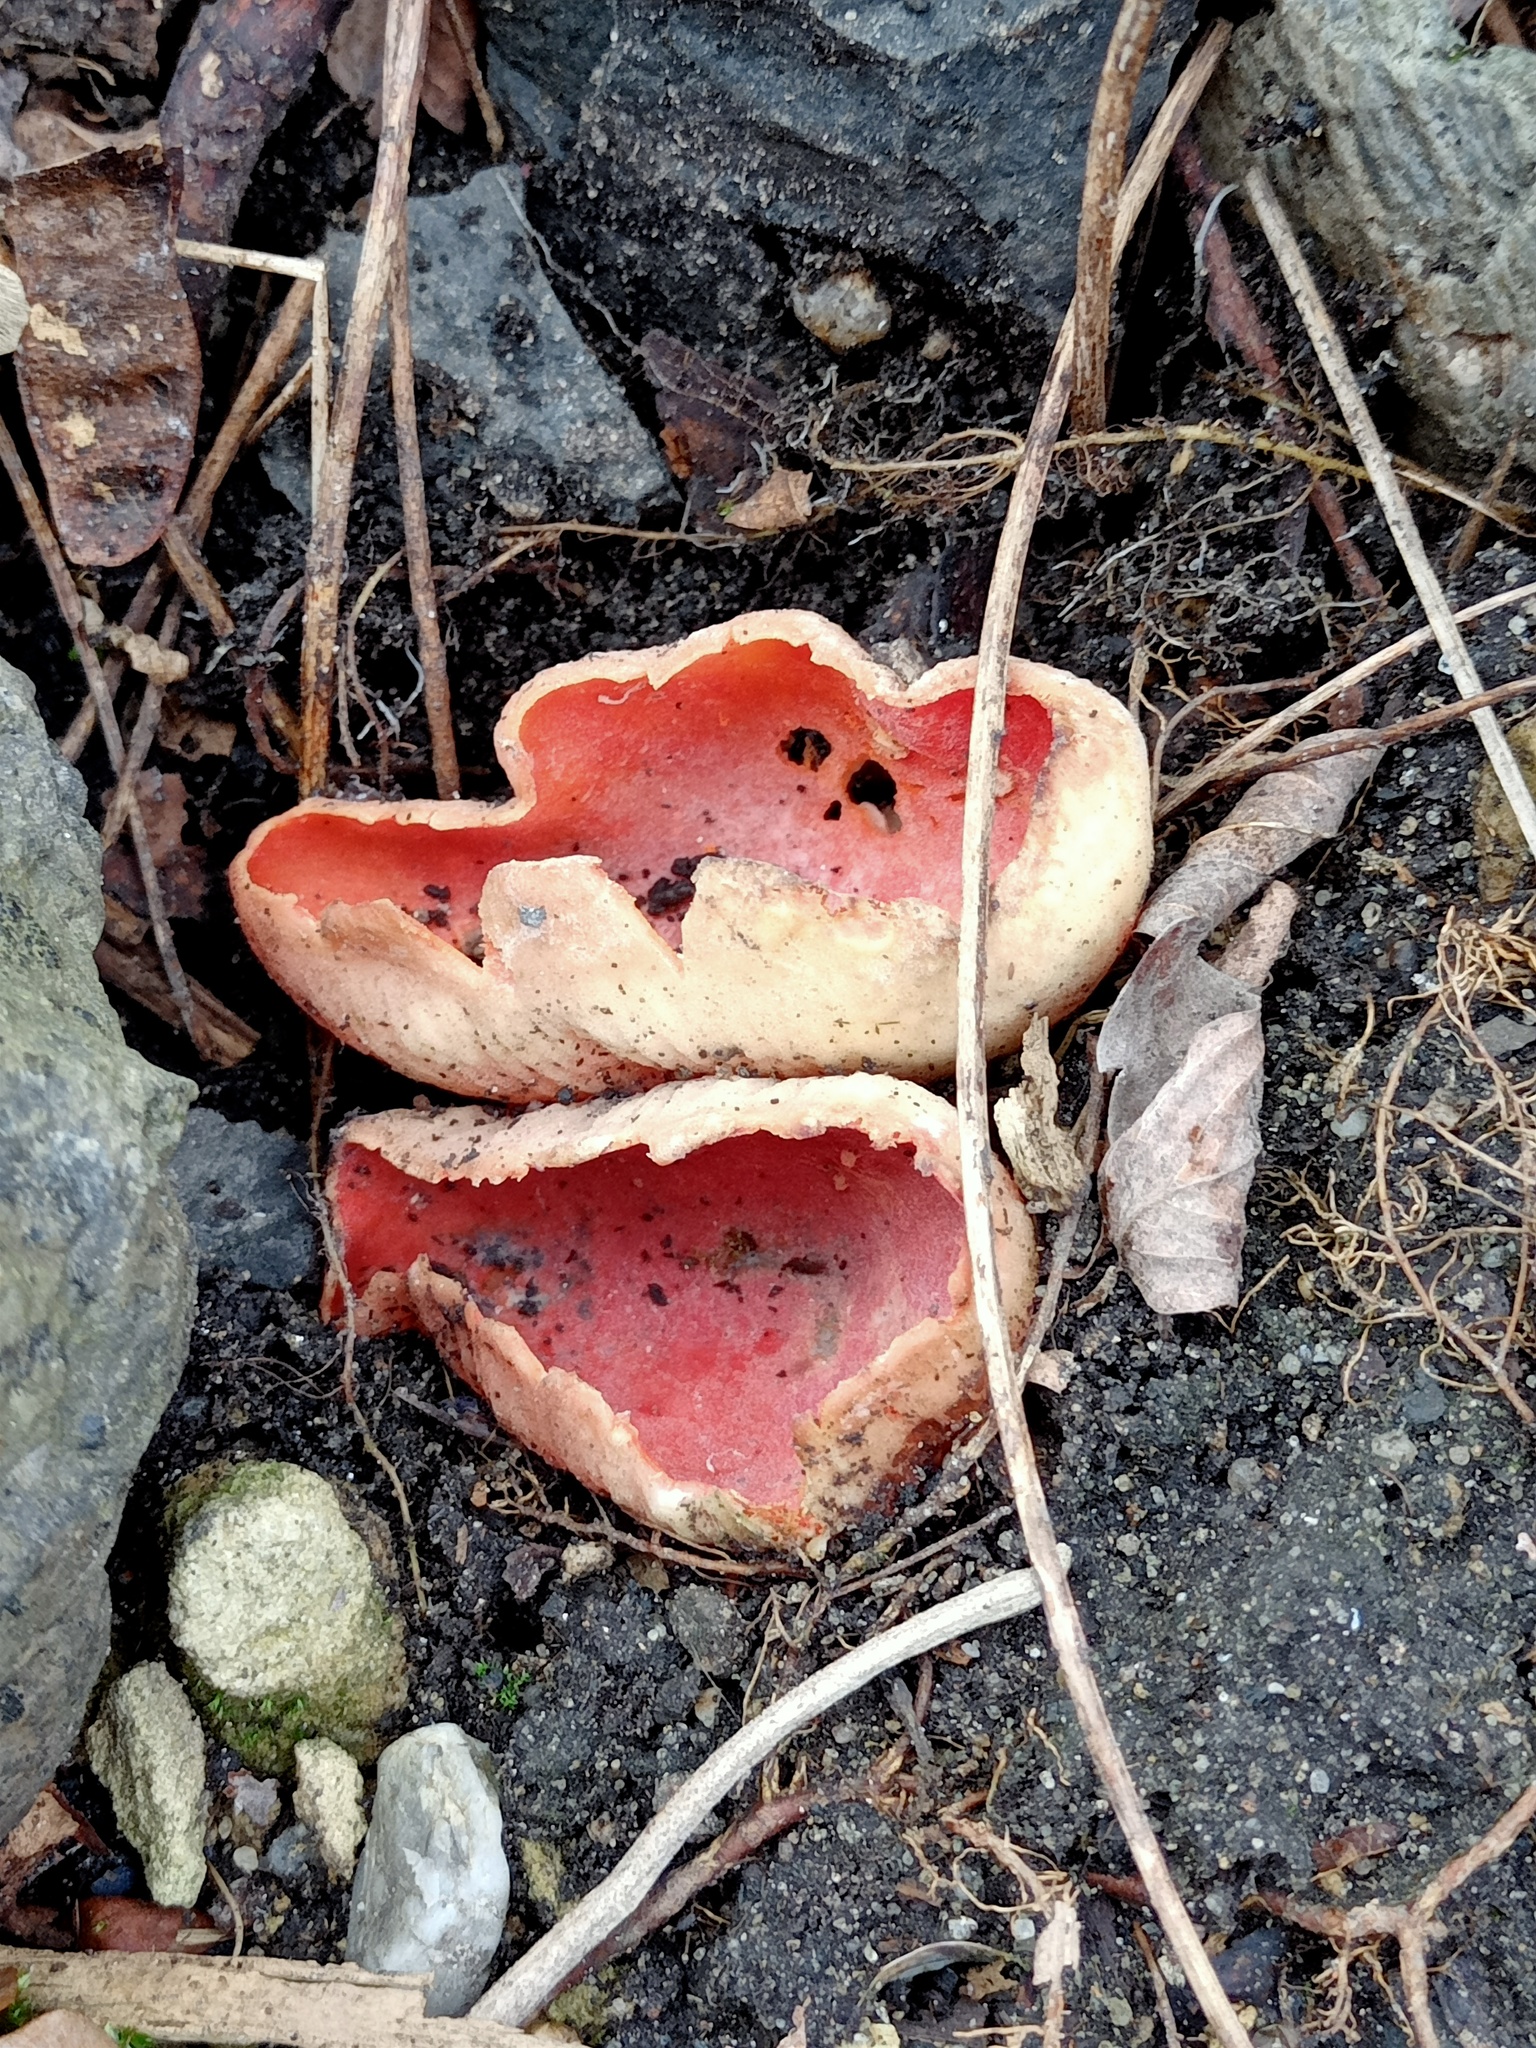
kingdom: Fungi
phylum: Ascomycota
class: Pezizomycetes
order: Pezizales
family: Sarcoscyphaceae
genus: Sarcoscypha
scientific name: Sarcoscypha
